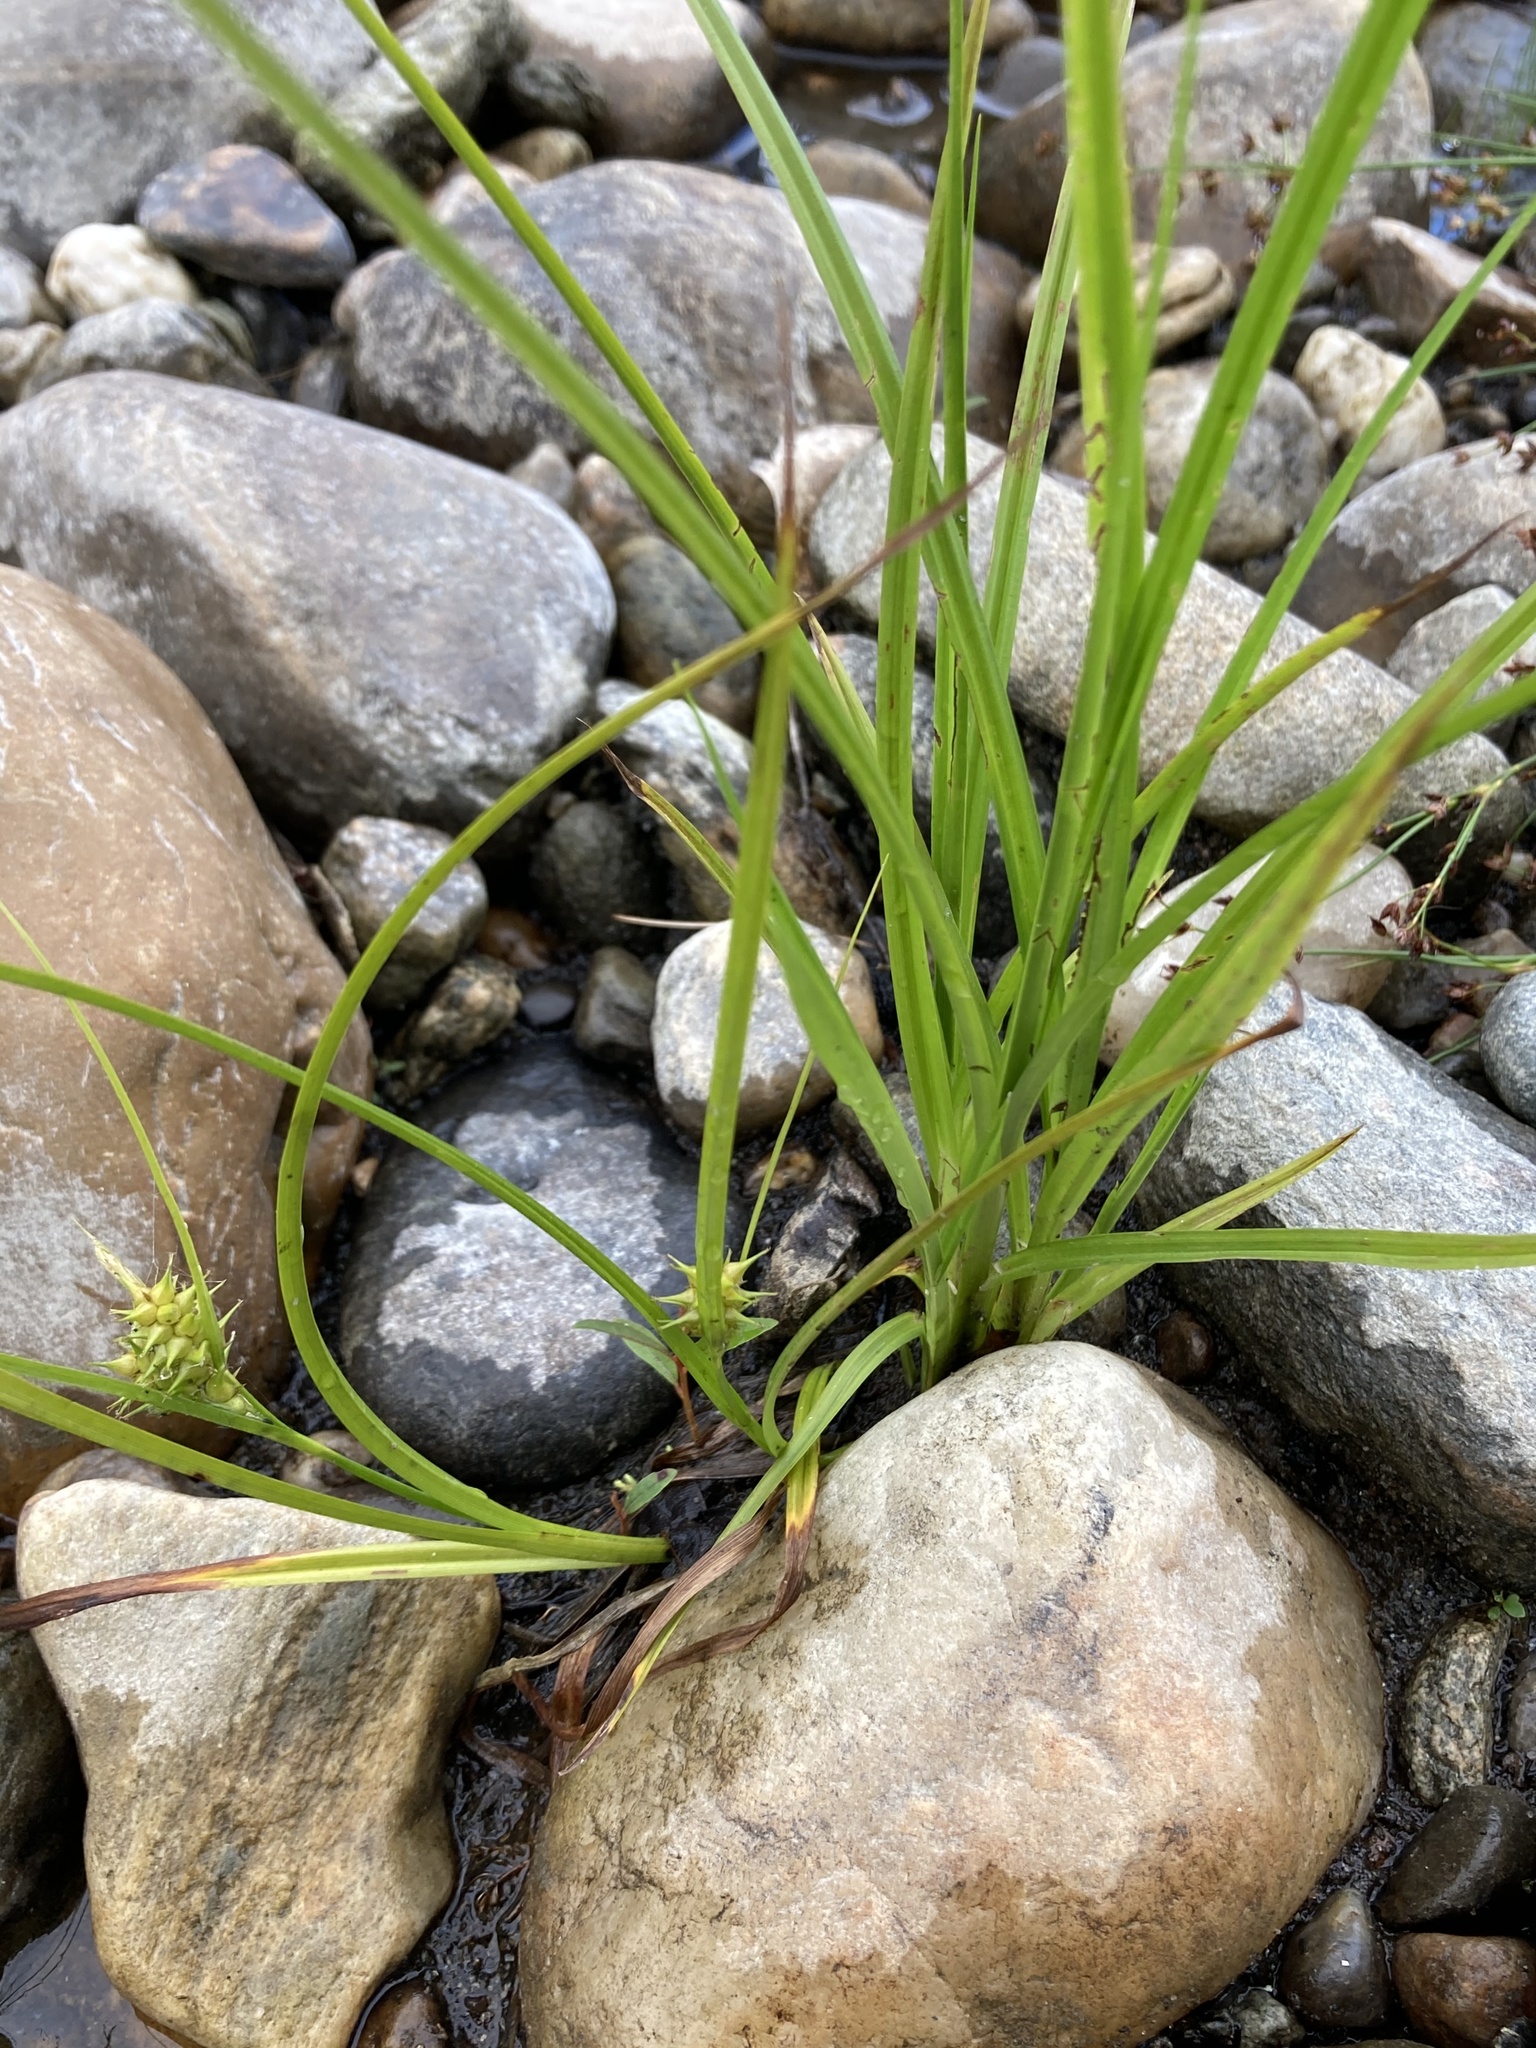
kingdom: Plantae
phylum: Tracheophyta
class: Liliopsida
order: Poales
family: Cyperaceae
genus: Carex
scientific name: Carex retrorsa
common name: Knot-sheath sedge
